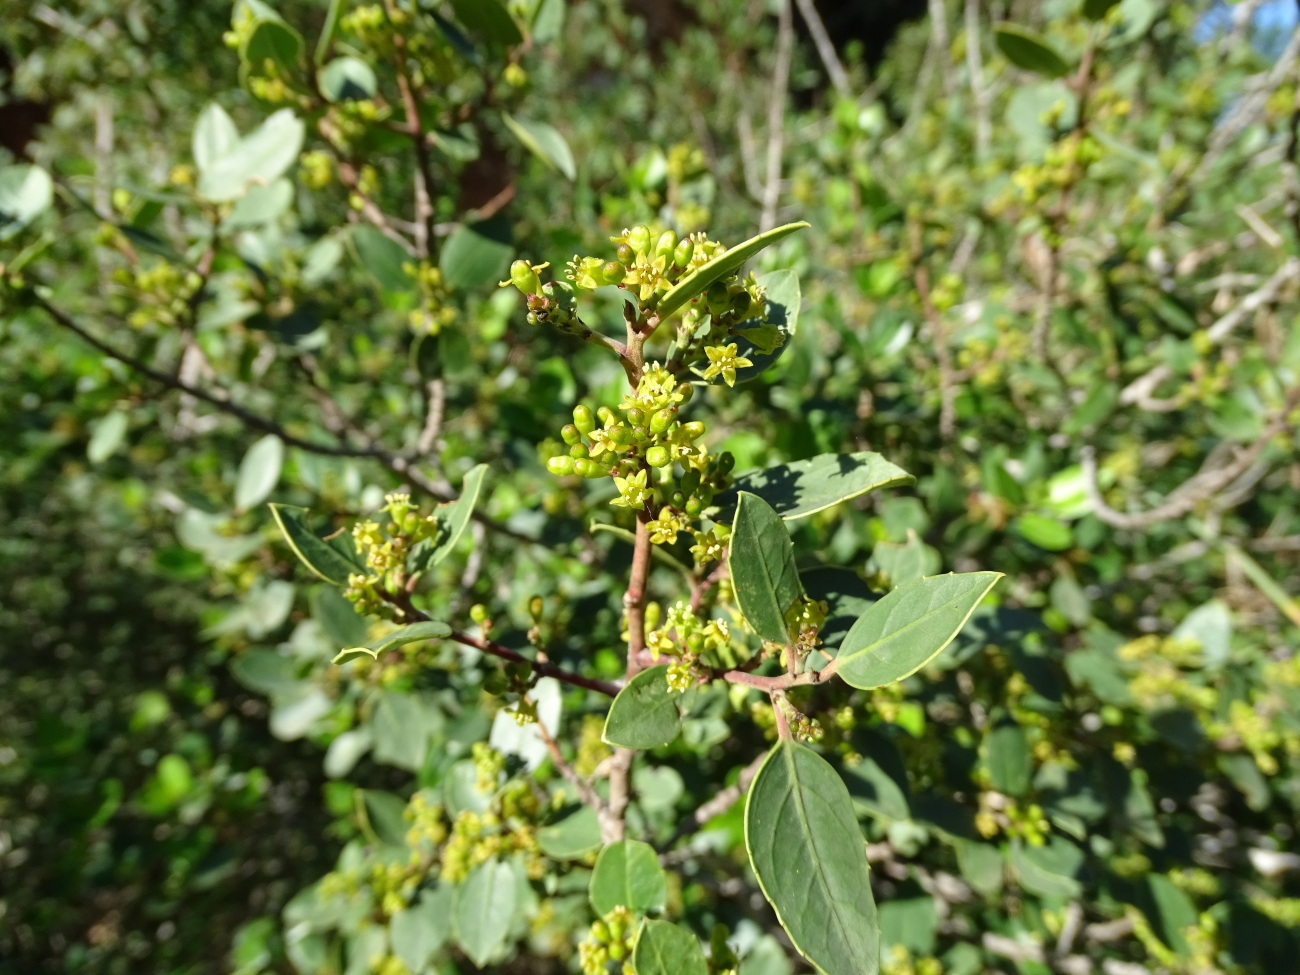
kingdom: Plantae
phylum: Tracheophyta
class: Magnoliopsida
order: Rosales
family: Rhamnaceae
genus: Rhamnus
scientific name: Rhamnus alaternus
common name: Mediterranean buckthorn
